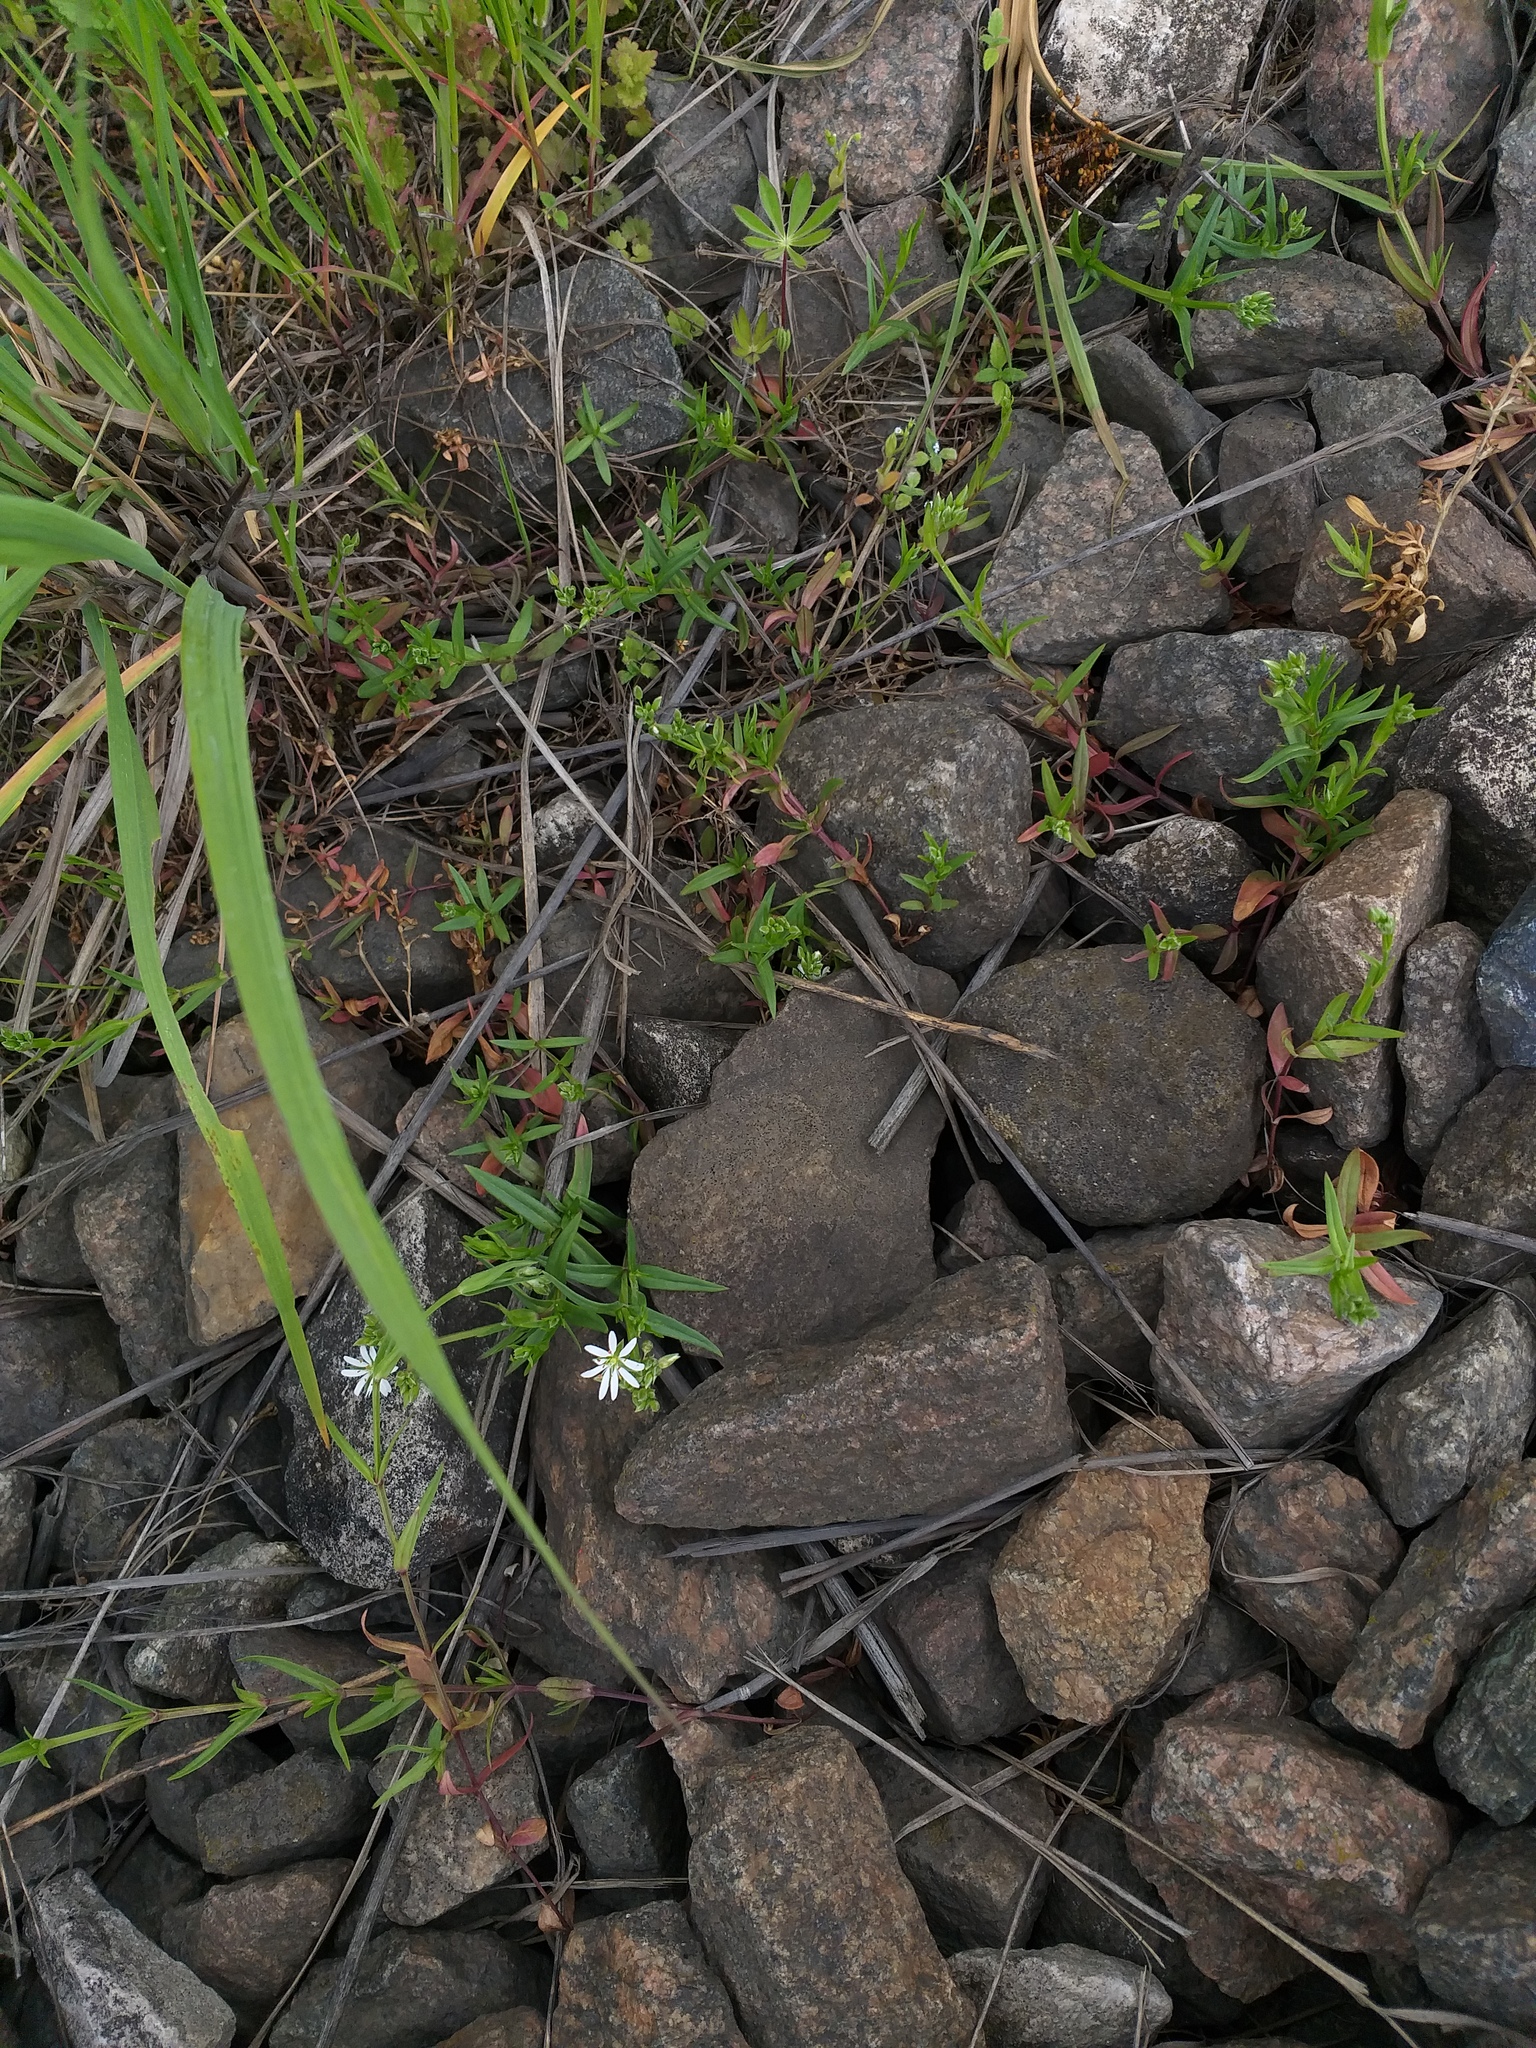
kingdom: Plantae
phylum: Tracheophyta
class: Magnoliopsida
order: Caryophyllales
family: Caryophyllaceae
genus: Stellaria
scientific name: Stellaria graminea
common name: Grass-like starwort
